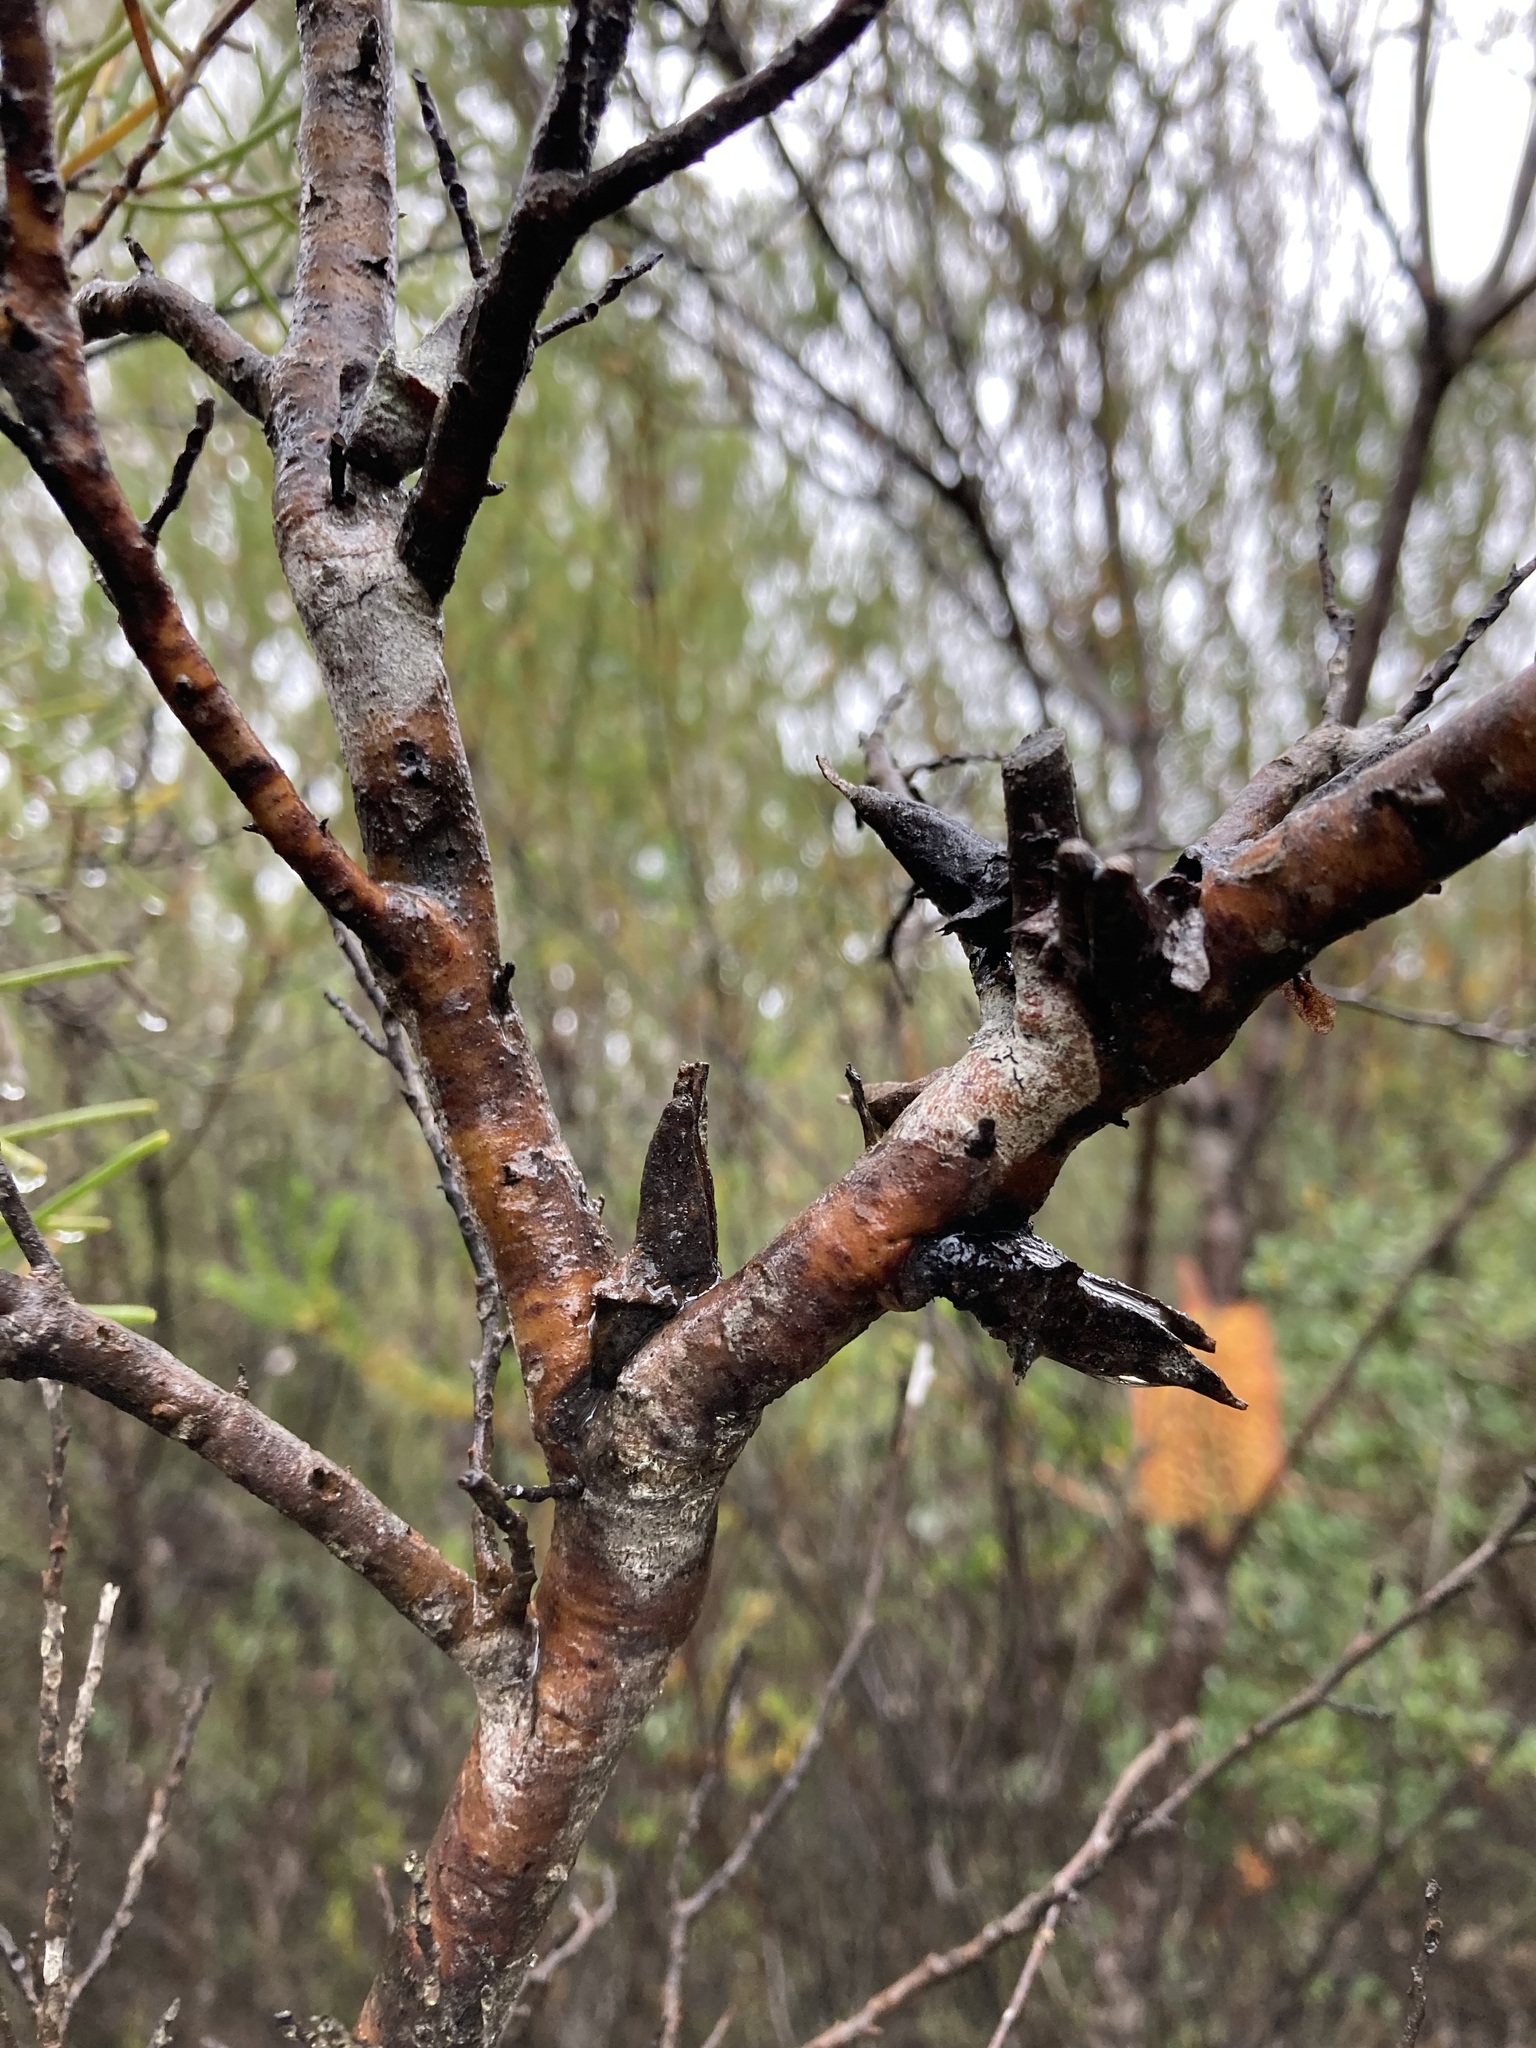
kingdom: Plantae
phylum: Tracheophyta
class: Magnoliopsida
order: Proteales
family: Proteaceae
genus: Hakea
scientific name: Hakea teretifolia
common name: Dagger hakea
